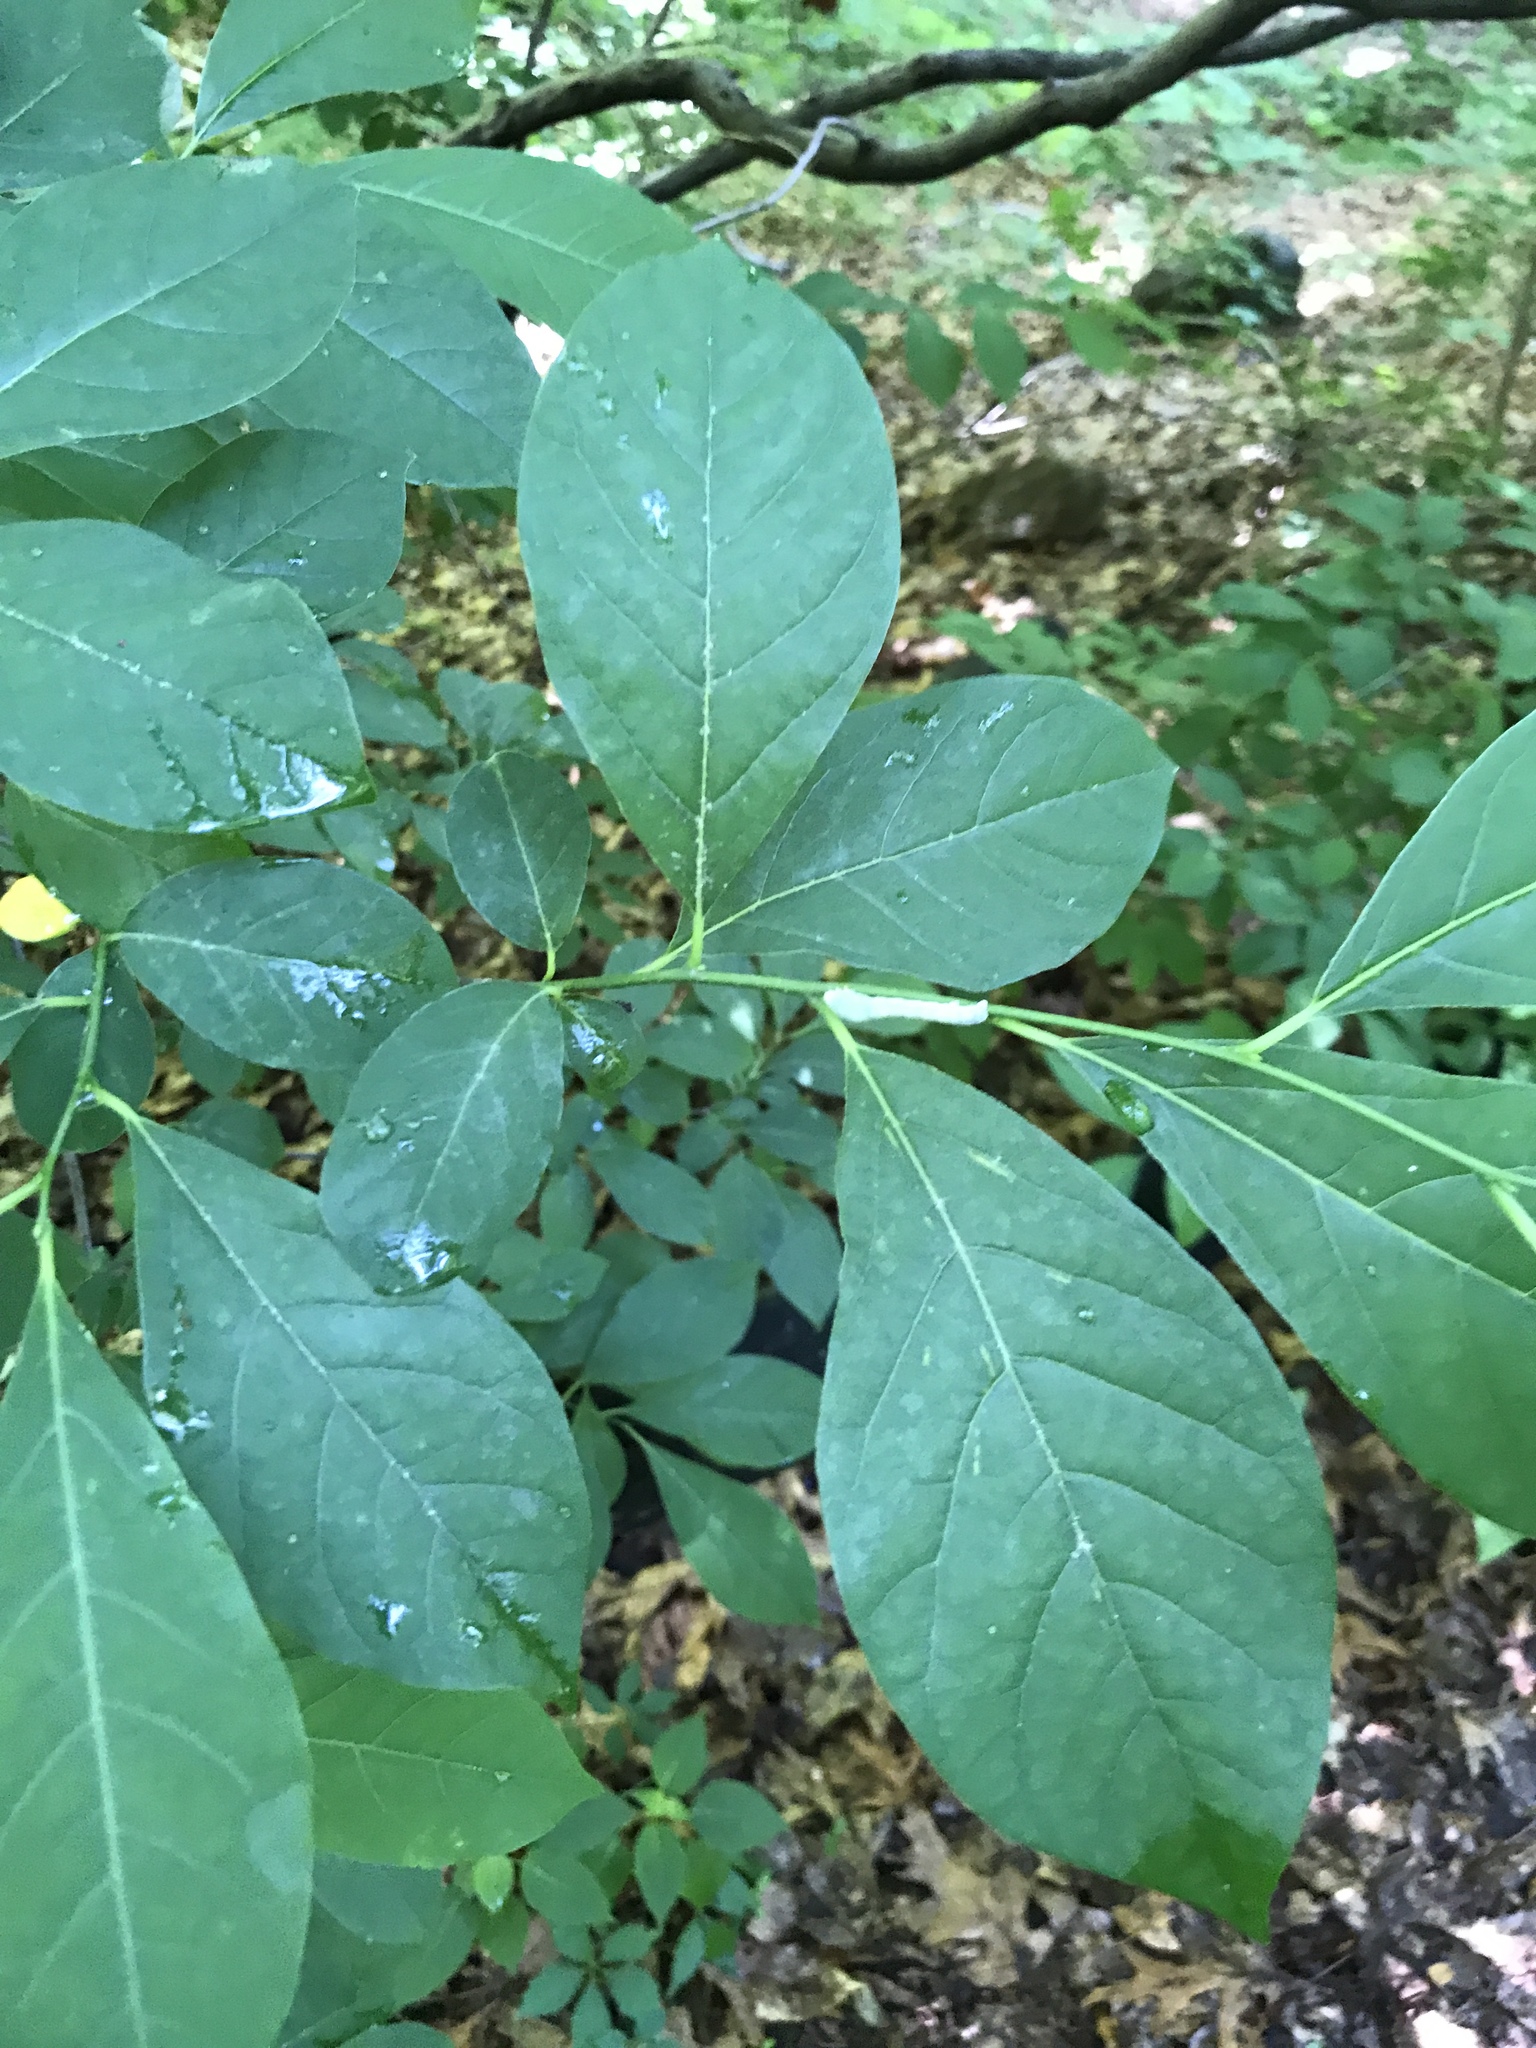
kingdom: Plantae
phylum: Tracheophyta
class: Magnoliopsida
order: Laurales
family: Lauraceae
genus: Lindera
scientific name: Lindera benzoin
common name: Spicebush
